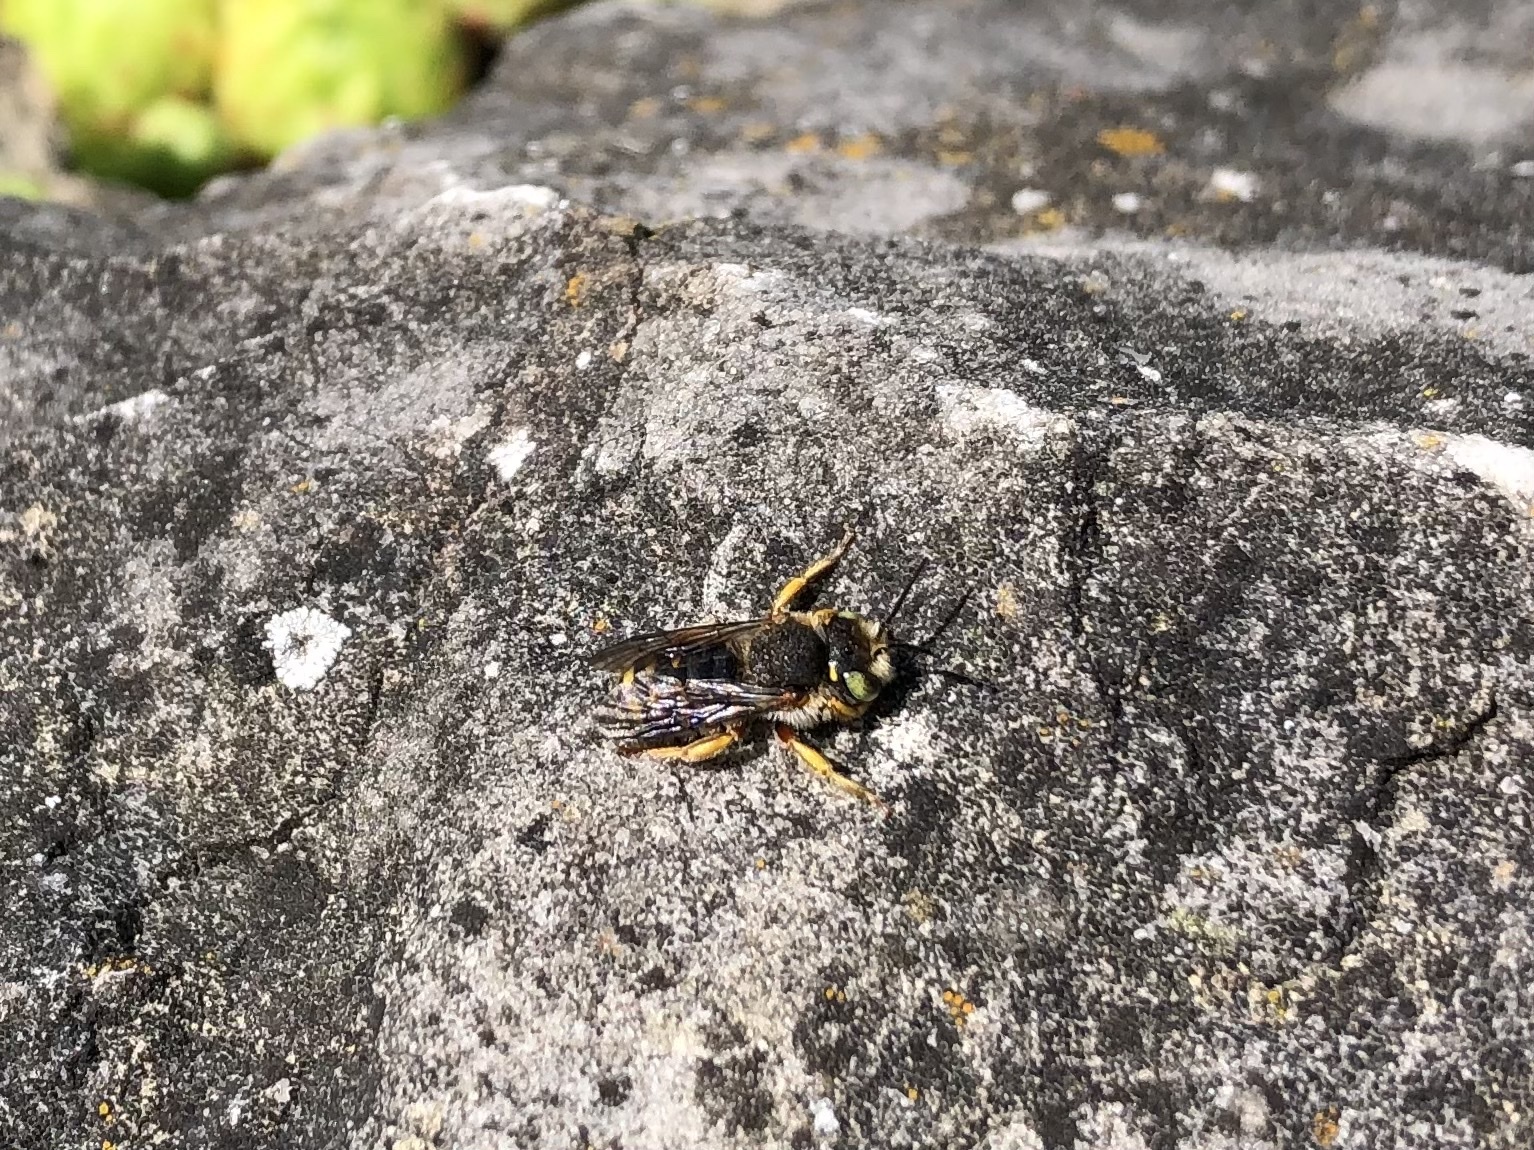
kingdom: Animalia
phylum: Arthropoda
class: Insecta
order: Hymenoptera
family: Megachilidae
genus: Anthidium
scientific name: Anthidium oblongatum
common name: Oblong wool carder bee
